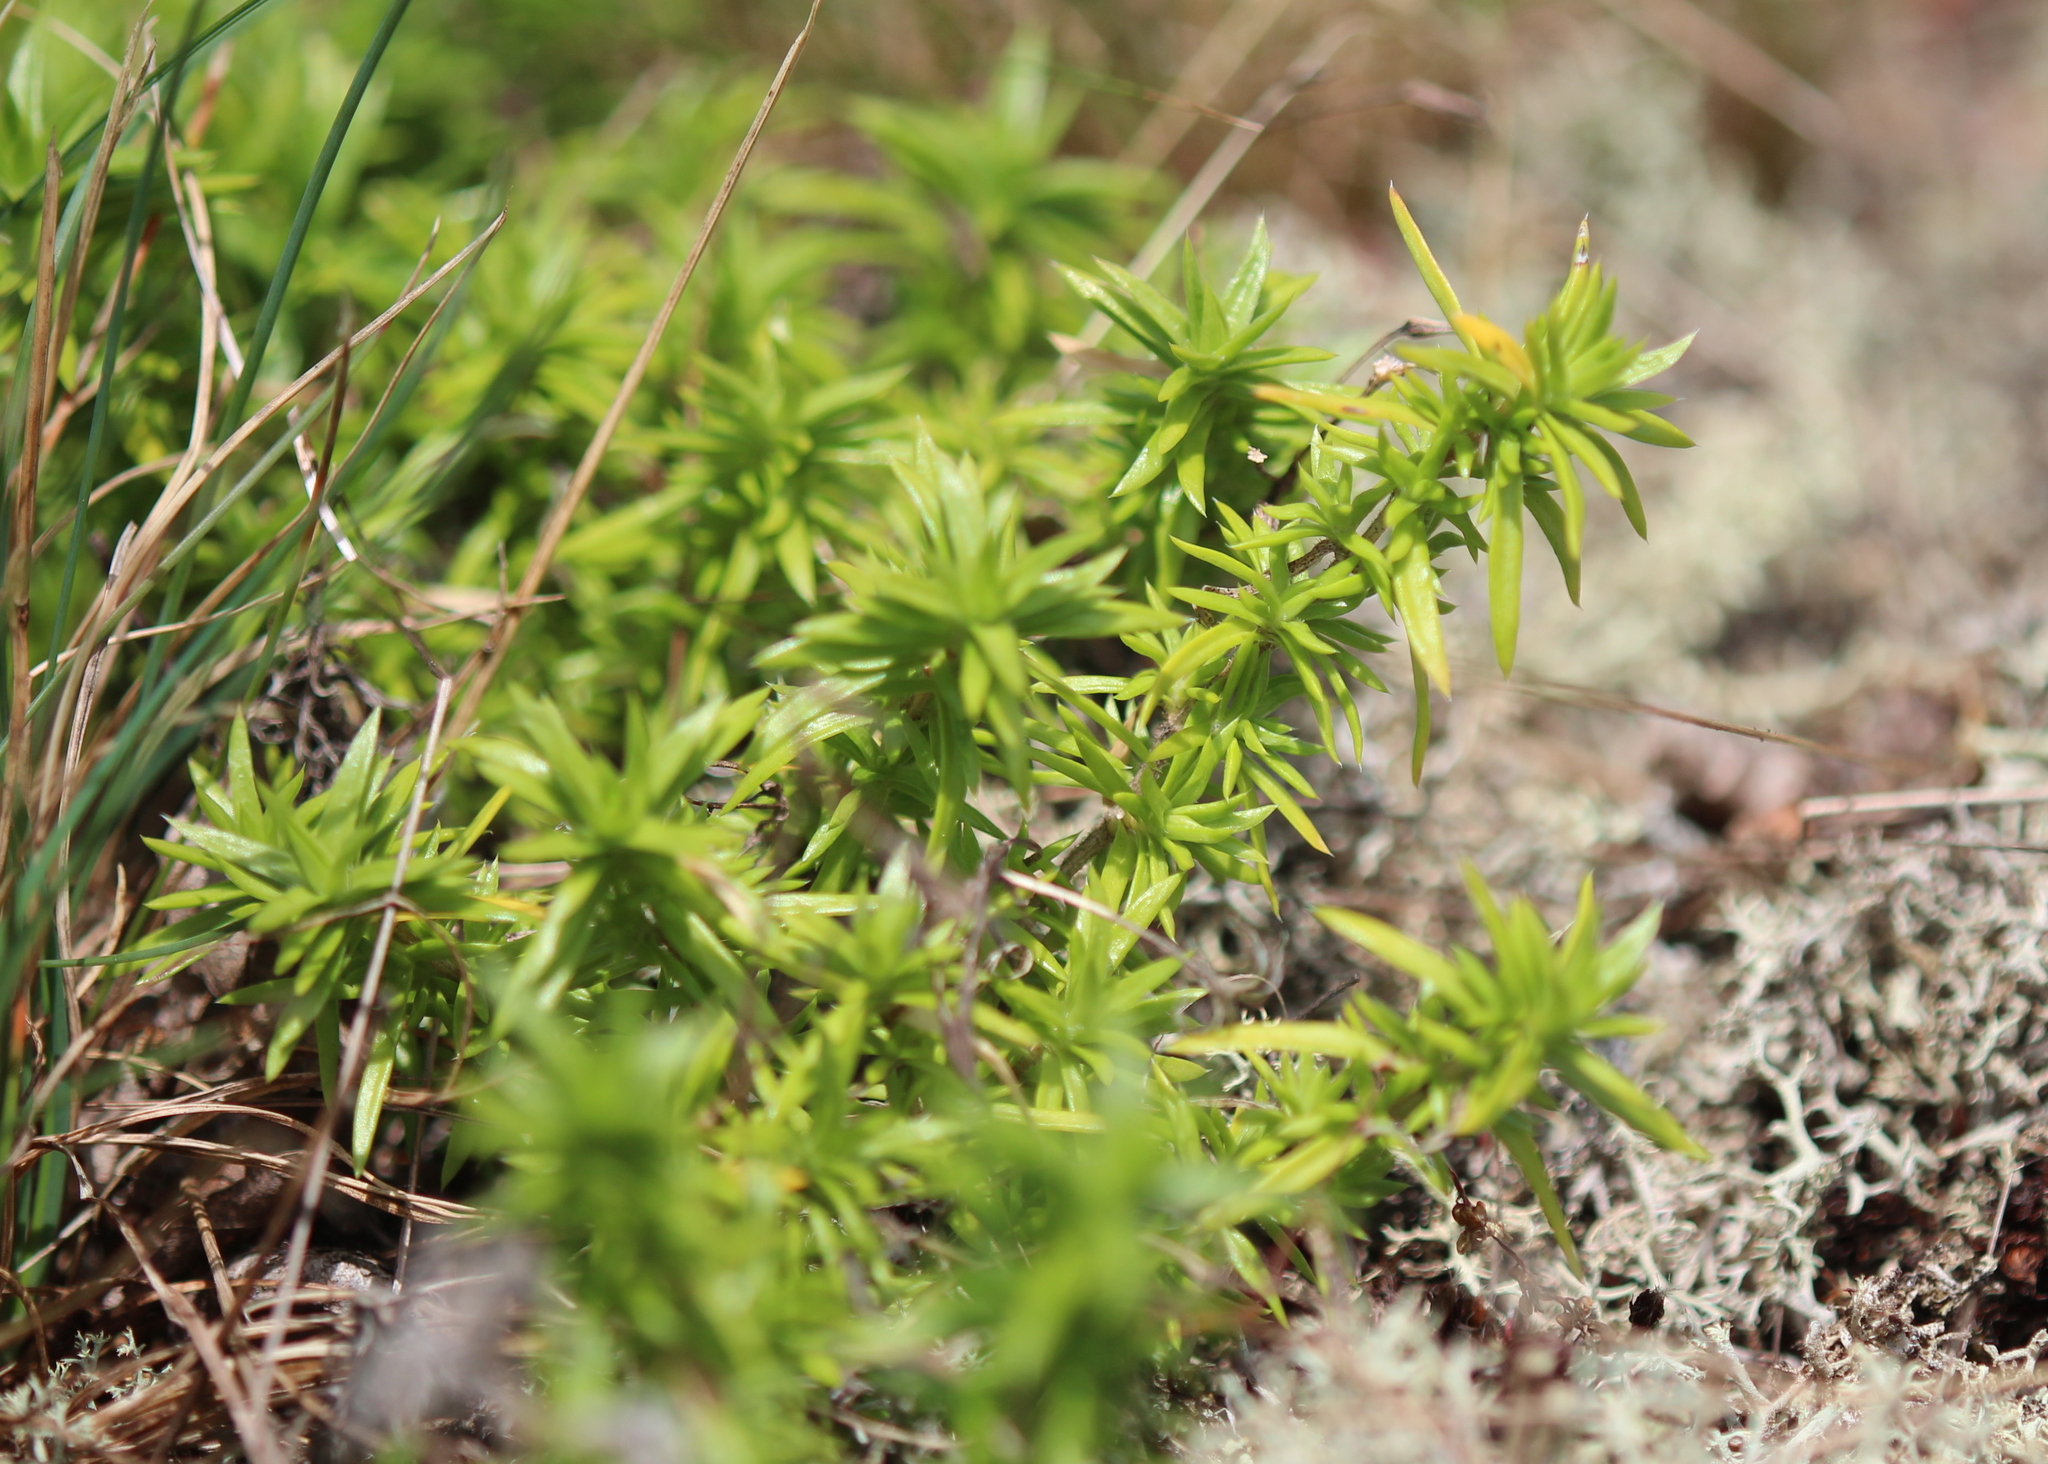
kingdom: Plantae
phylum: Tracheophyta
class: Magnoliopsida
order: Ericales
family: Polemoniaceae
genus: Phlox
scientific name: Phlox subulata
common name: Moss phlox
